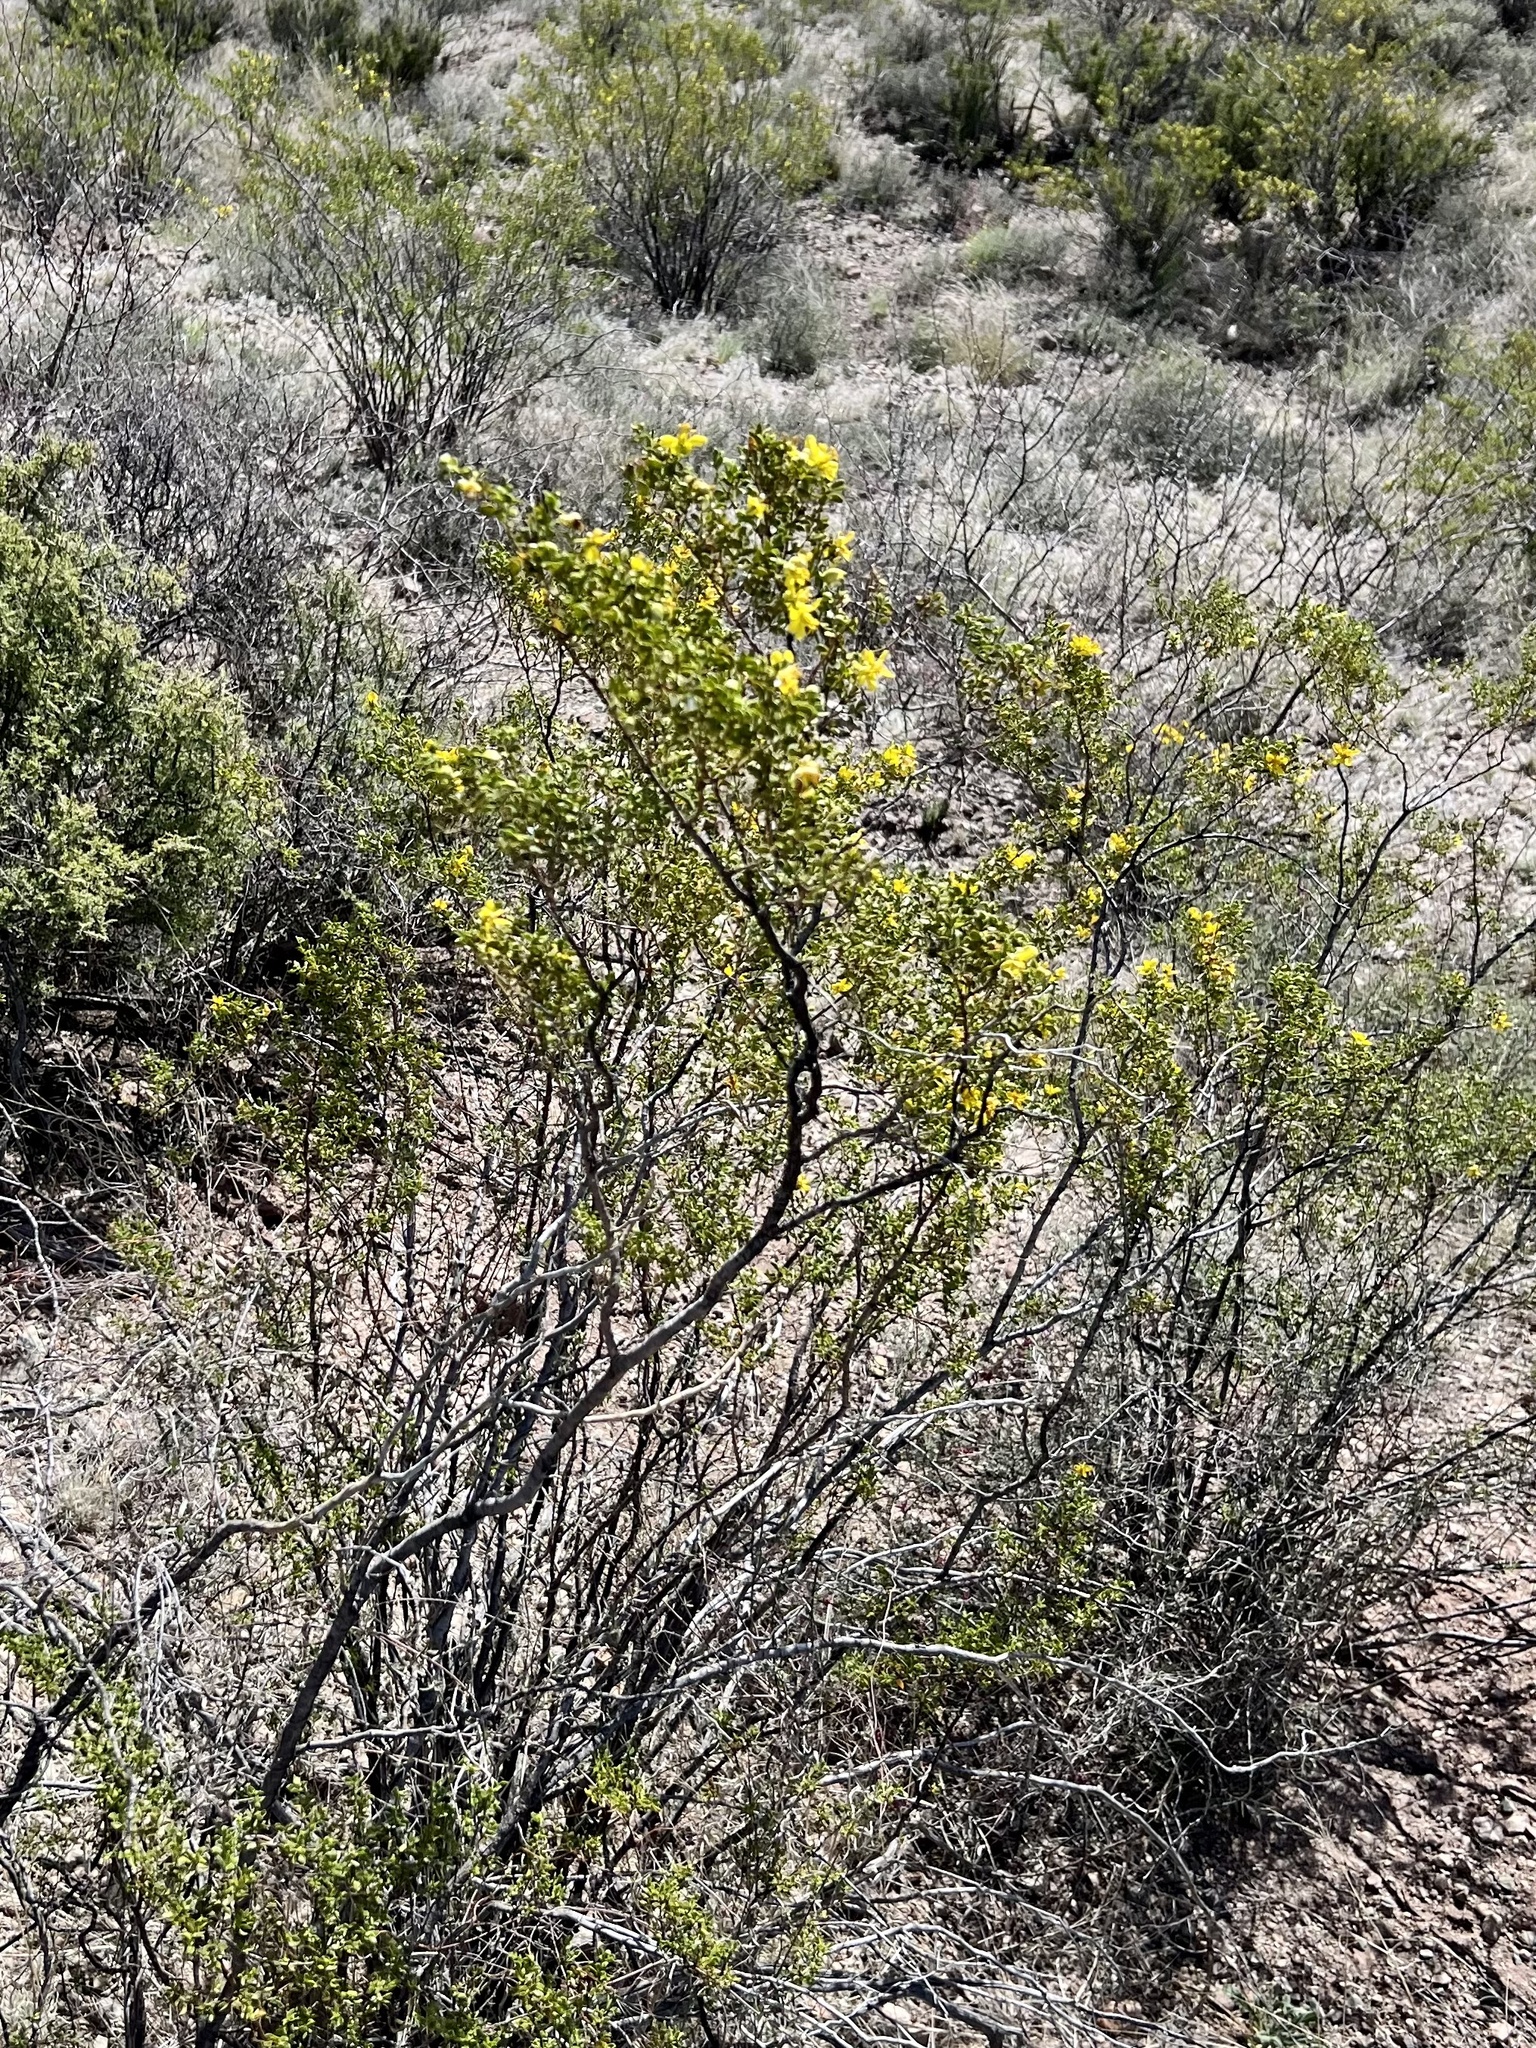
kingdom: Plantae
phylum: Tracheophyta
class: Magnoliopsida
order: Zygophyllales
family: Zygophyllaceae
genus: Larrea
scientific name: Larrea tridentata
